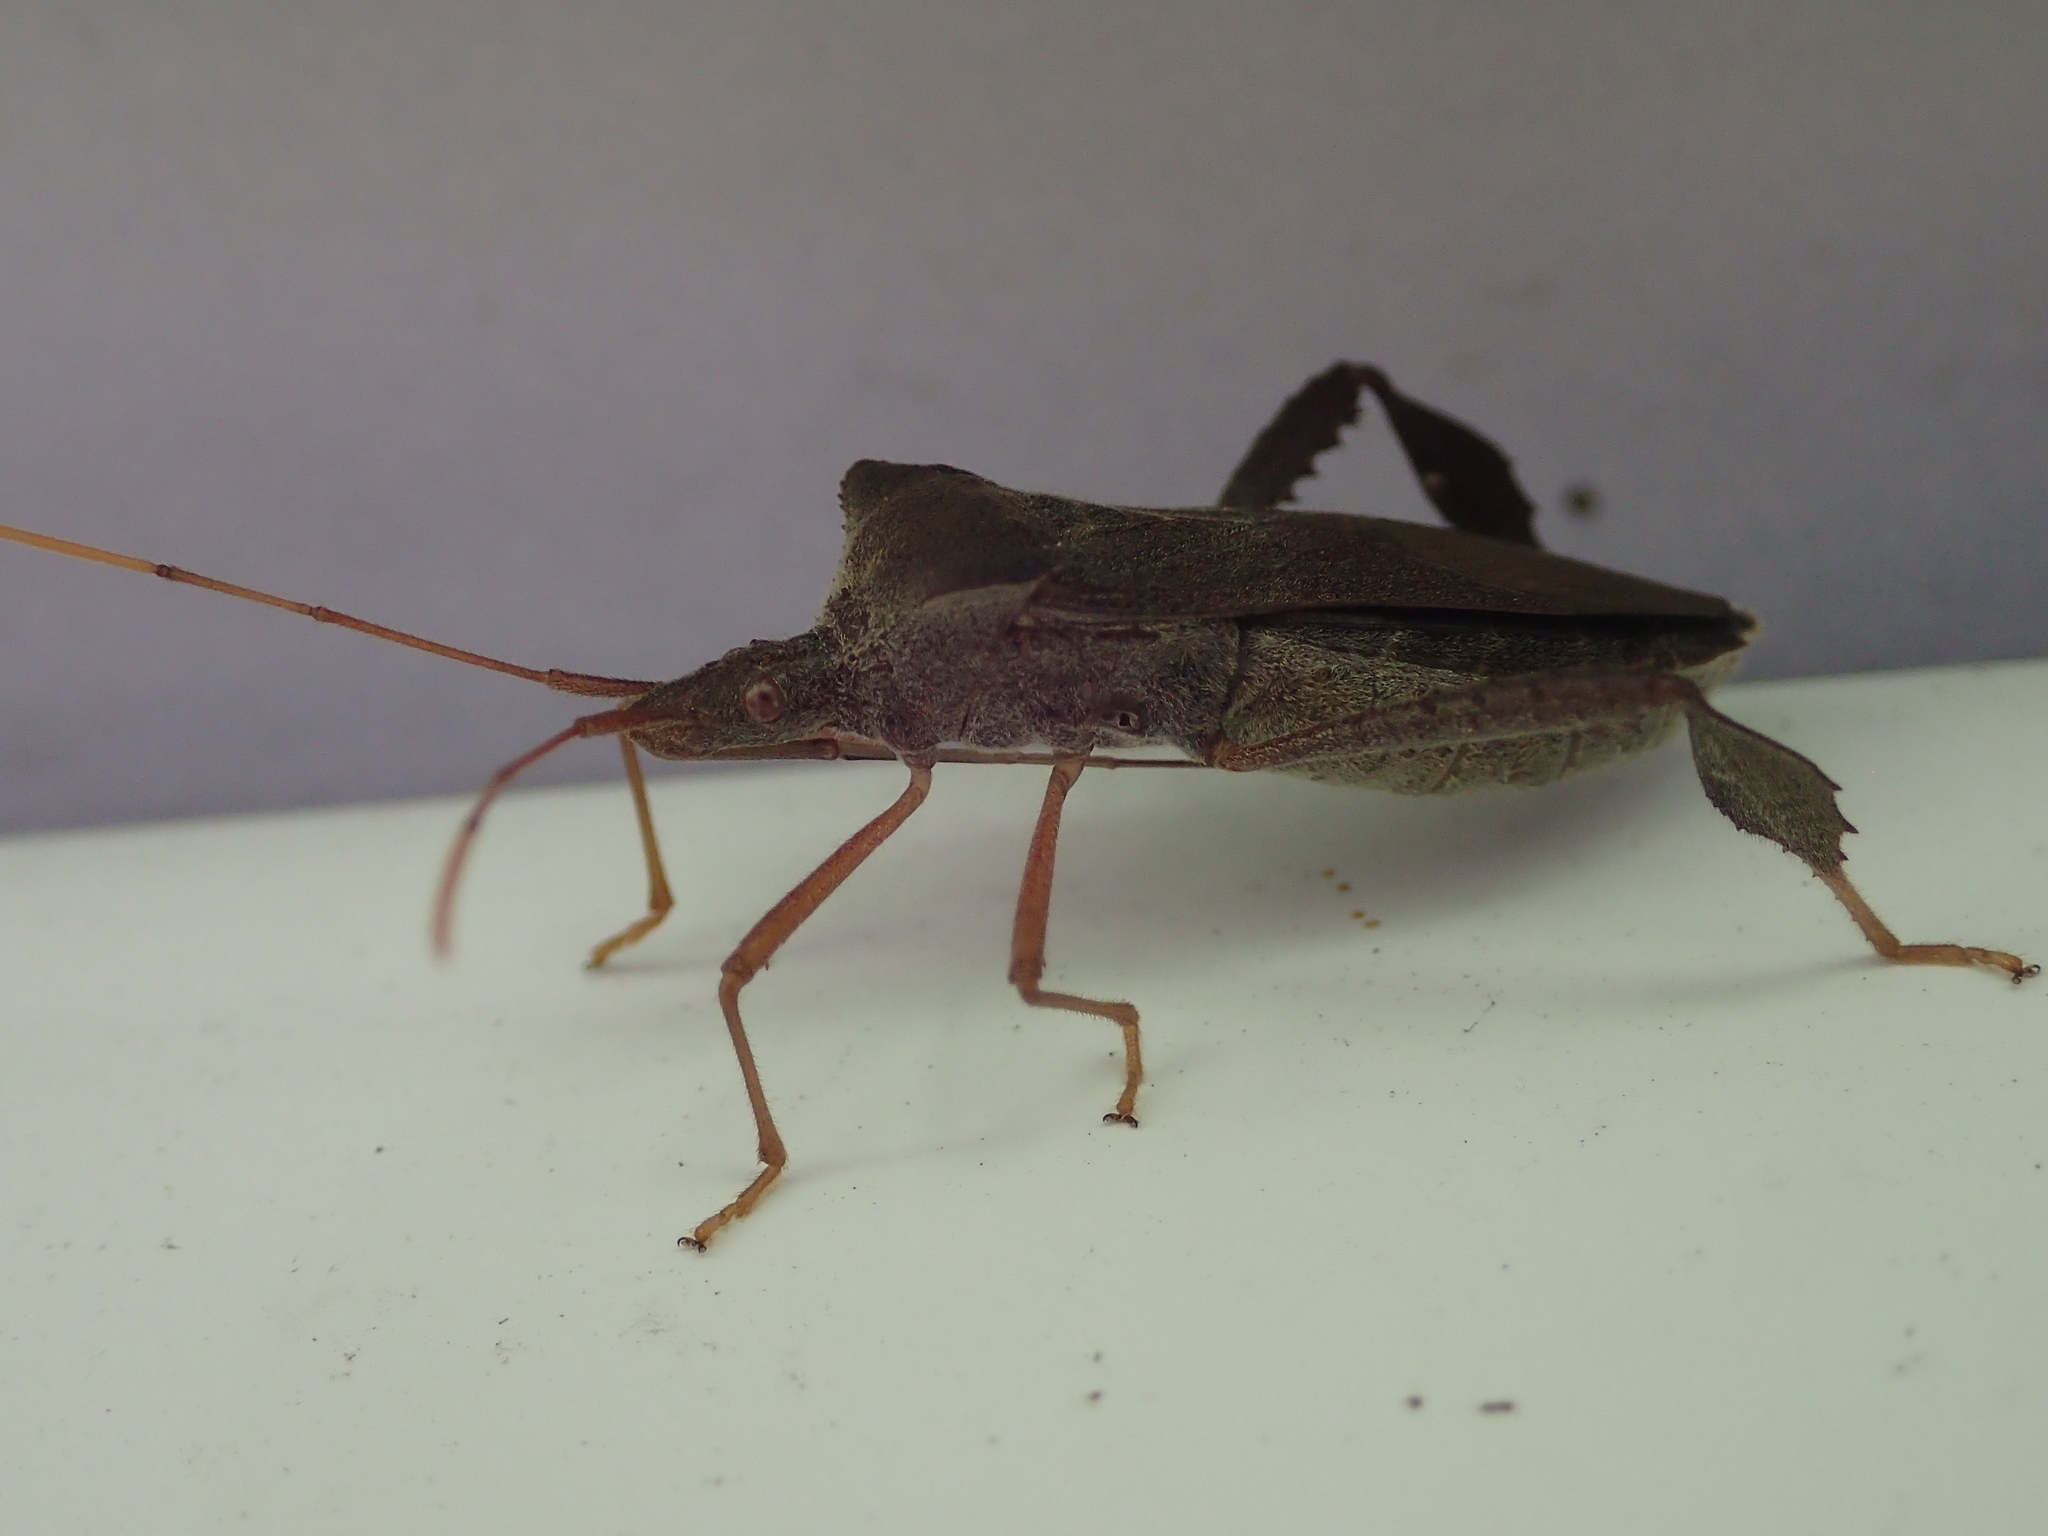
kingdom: Animalia
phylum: Arthropoda
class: Insecta
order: Hemiptera
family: Coreidae
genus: Leptoglossus
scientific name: Leptoglossus fulvicornis
